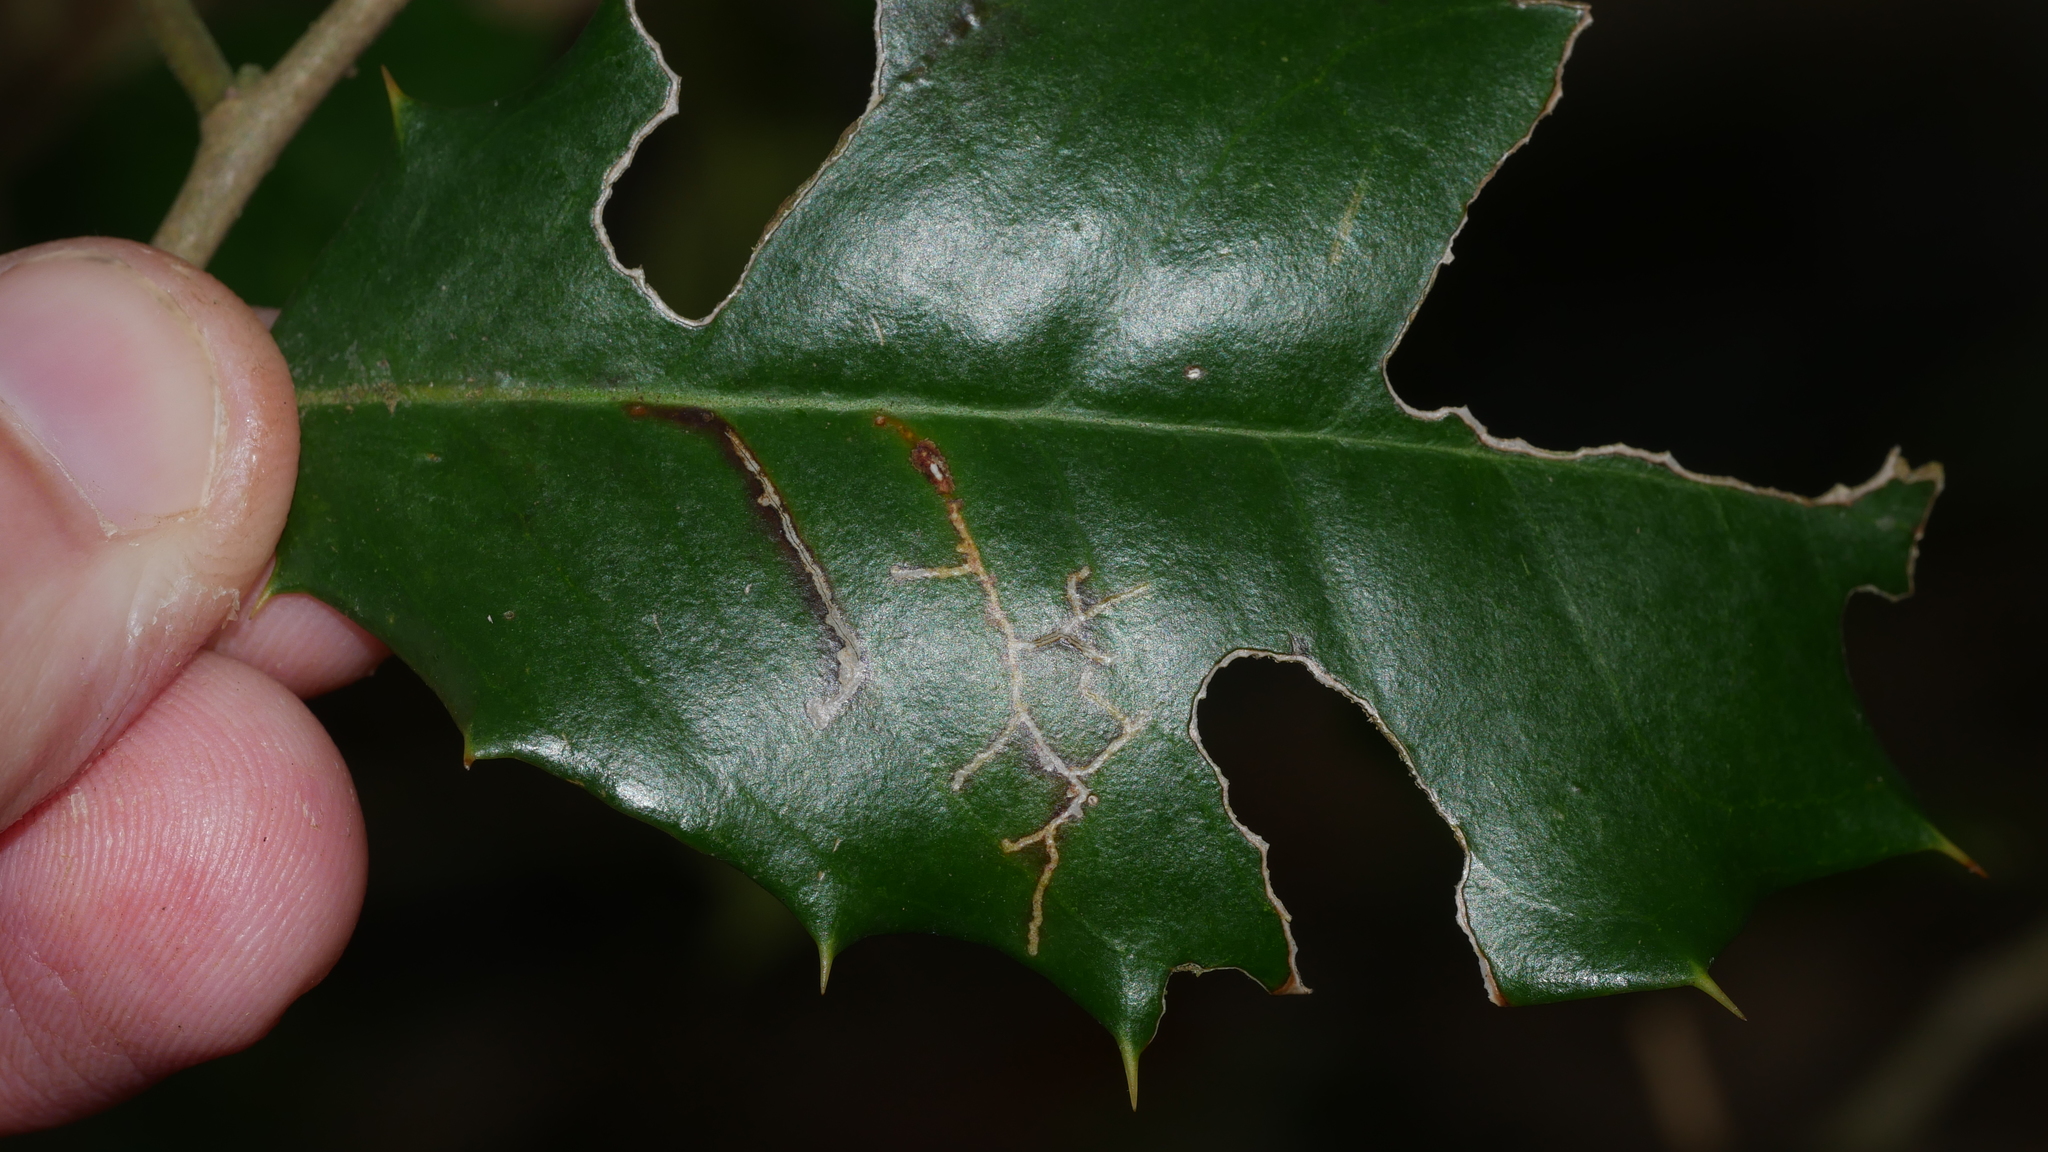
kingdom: Animalia
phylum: Arthropoda
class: Insecta
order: Lepidoptera
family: Tortricidae
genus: Rhopobota
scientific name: Rhopobota
